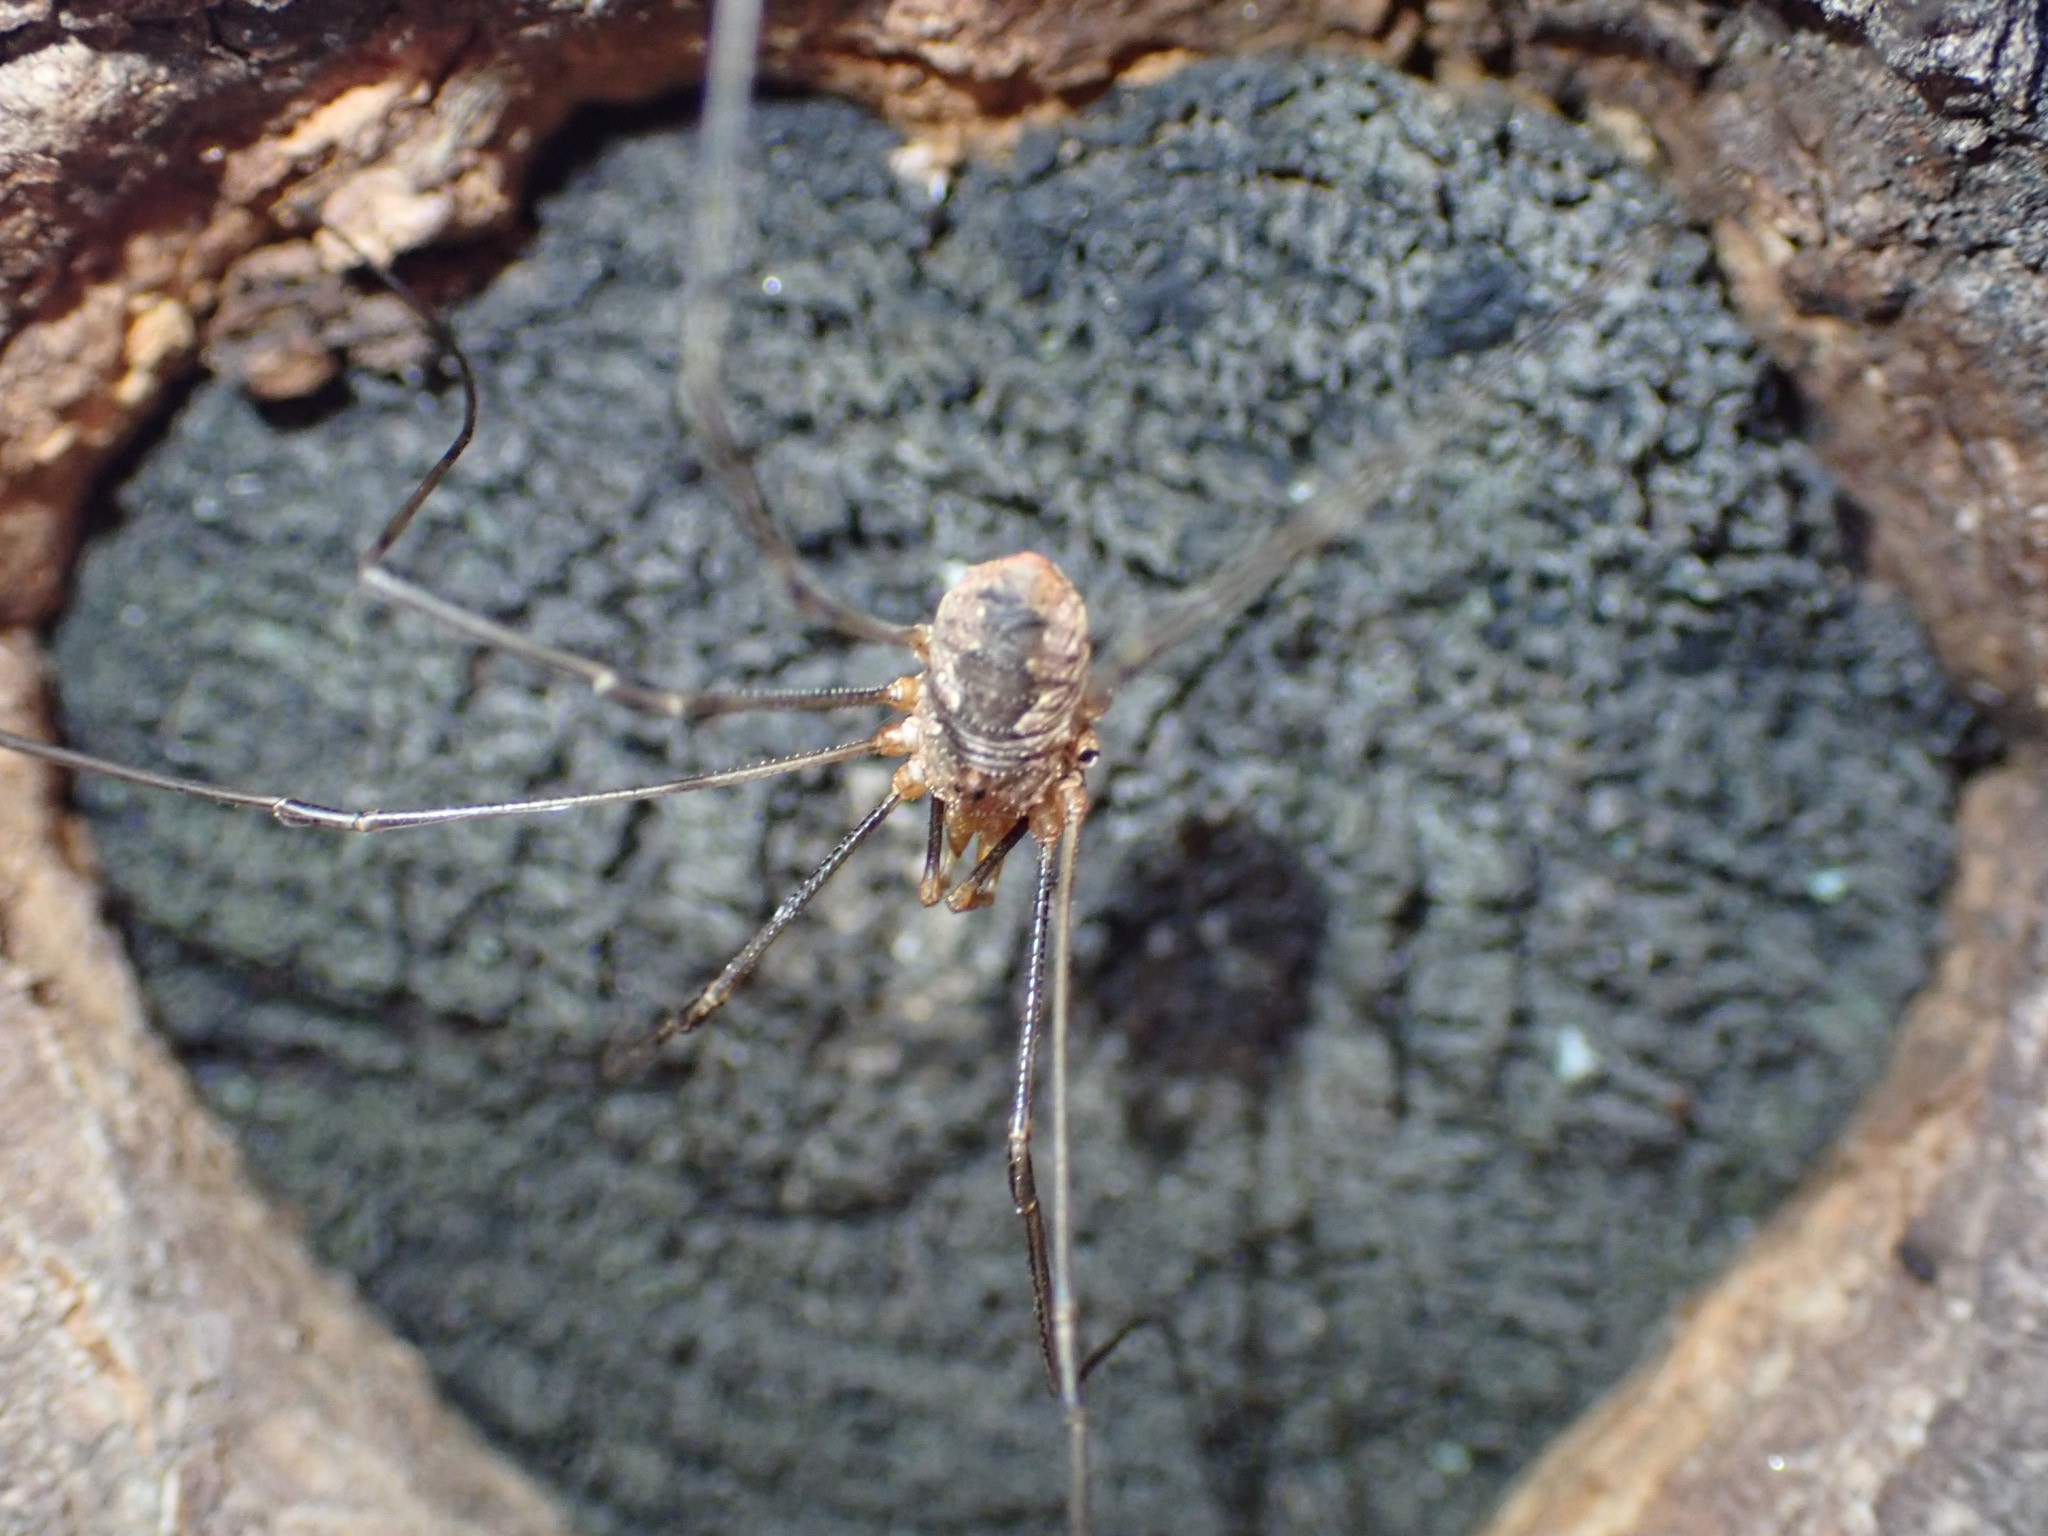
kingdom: Animalia
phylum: Arthropoda
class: Arachnida
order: Opiliones
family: Phalangiidae
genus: Phalangium
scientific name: Phalangium opilio
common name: Daddy longleg
